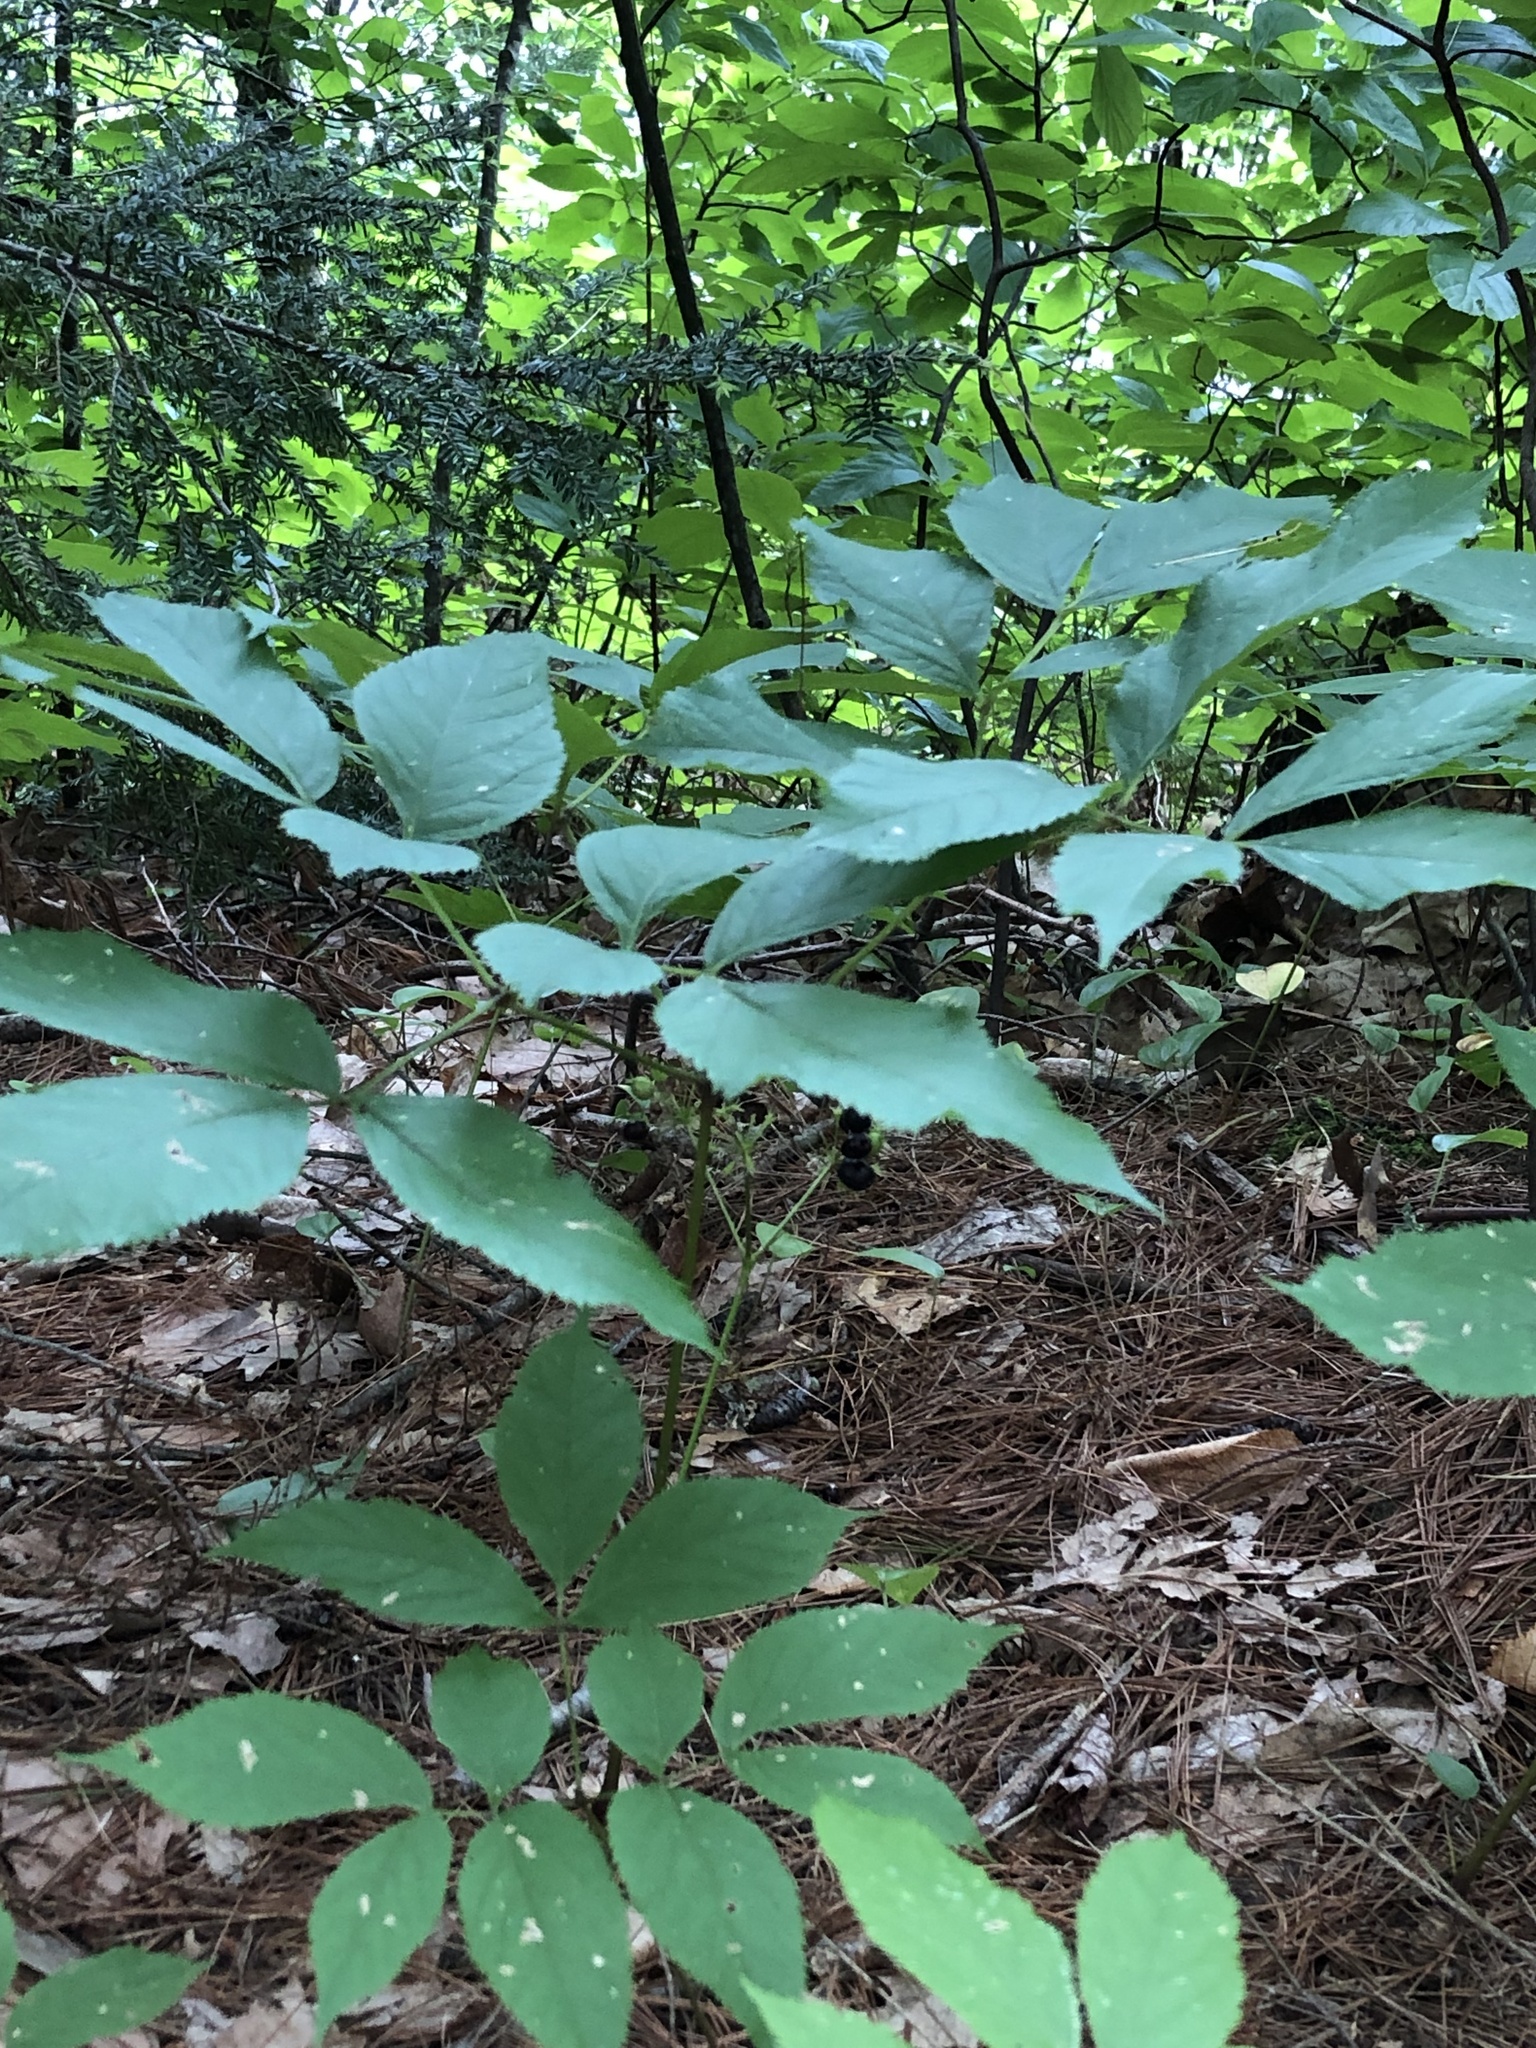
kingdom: Plantae
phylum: Tracheophyta
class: Magnoliopsida
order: Apiales
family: Araliaceae
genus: Aralia
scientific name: Aralia nudicaulis
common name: Wild sarsaparilla
